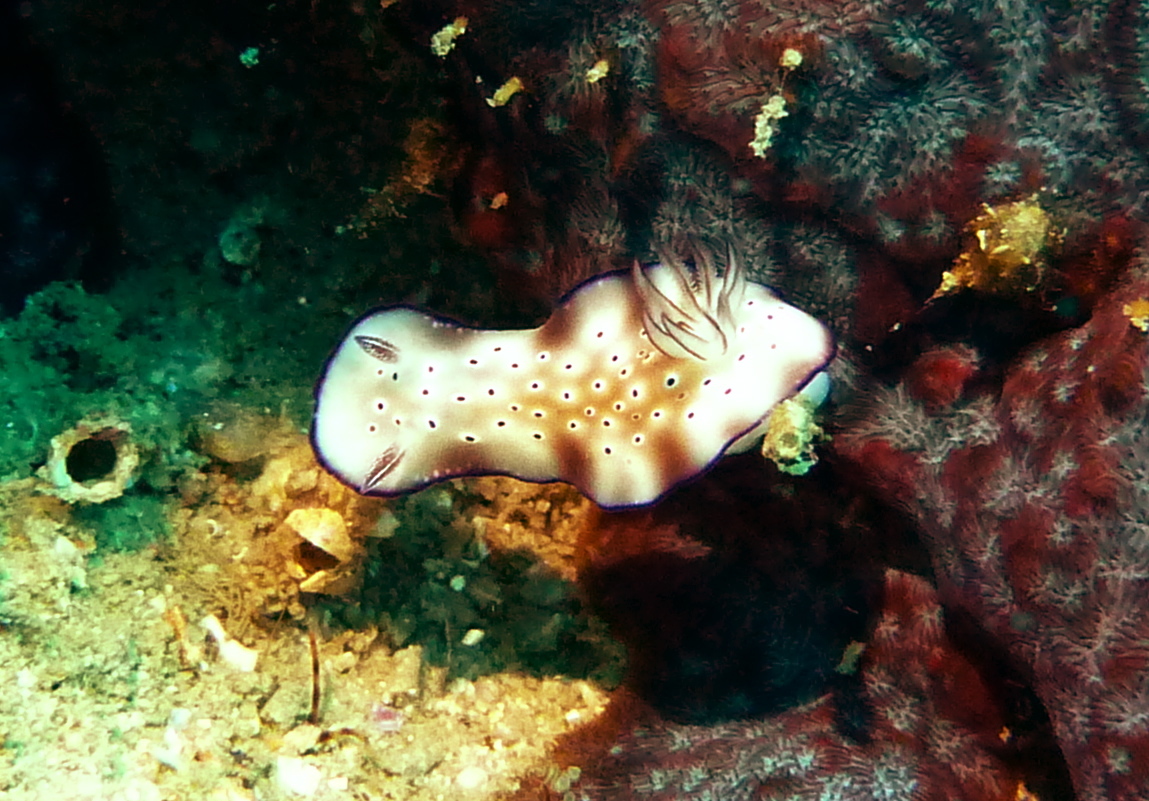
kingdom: Animalia
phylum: Mollusca
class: Gastropoda
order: Nudibranchia
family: Chromodorididae
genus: Hypselodoris
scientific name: Hypselodoris tryoni
